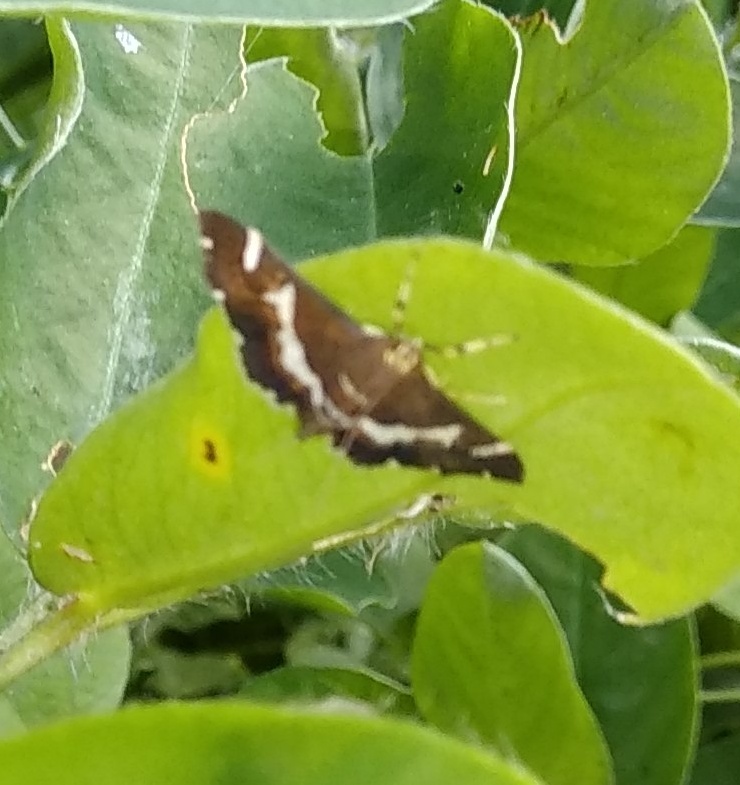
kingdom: Animalia
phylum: Arthropoda
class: Insecta
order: Lepidoptera
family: Crambidae
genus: Spoladea
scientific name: Spoladea recurvalis
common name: Beet webworm moth
